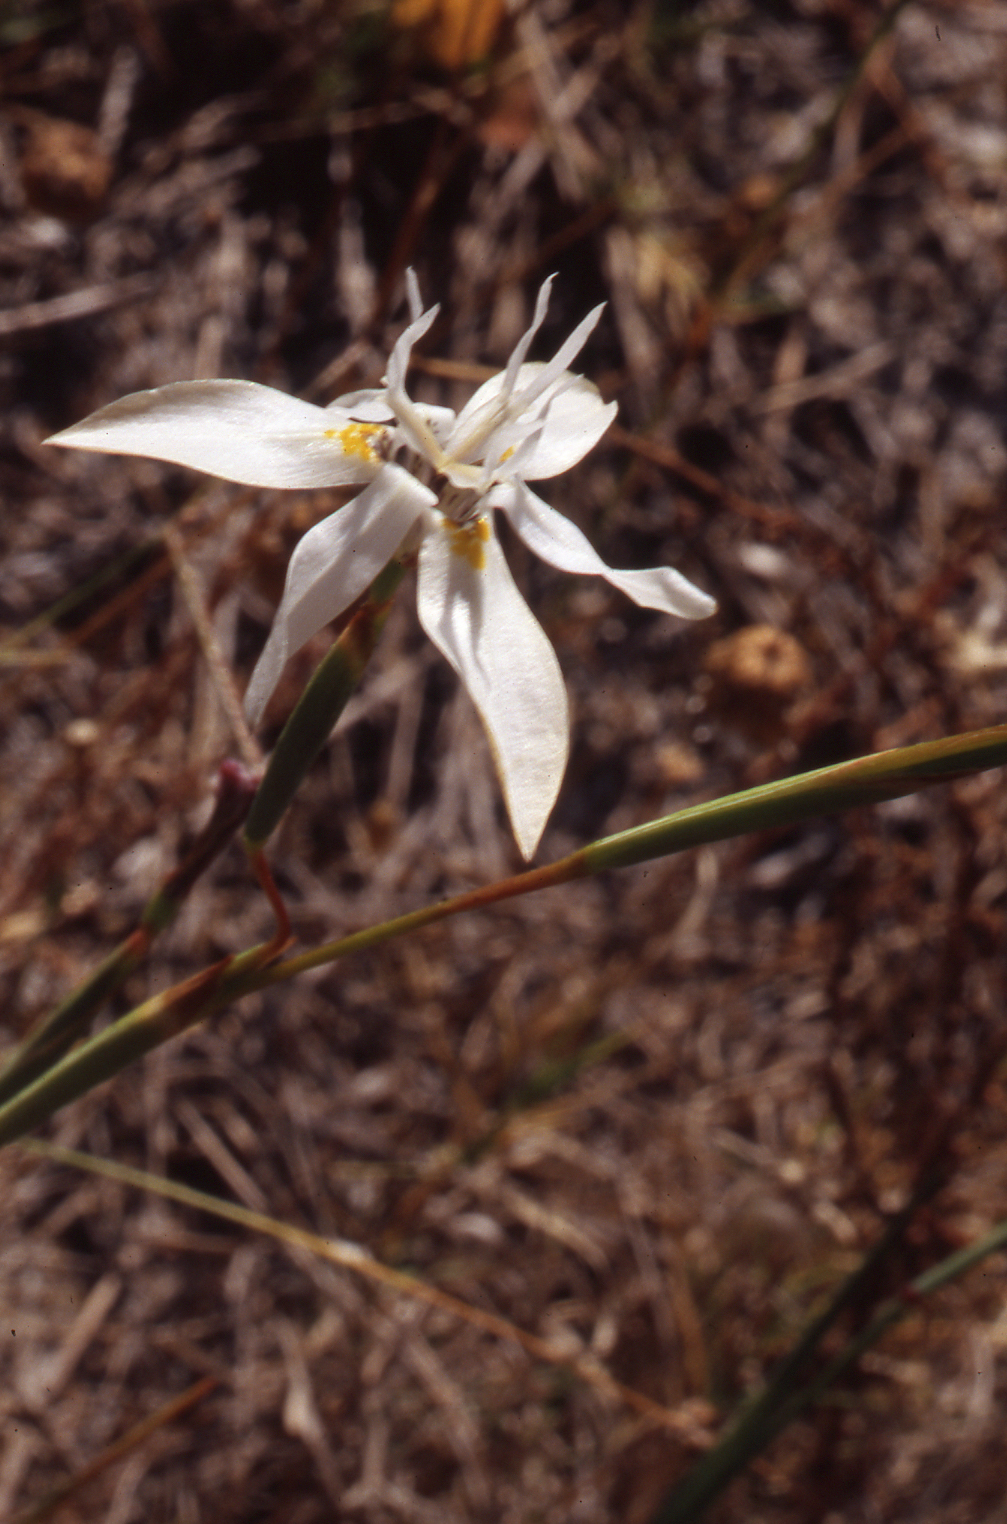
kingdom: Plantae
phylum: Tracheophyta
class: Liliopsida
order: Asparagales
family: Iridaceae
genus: Moraea
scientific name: Moraea viscaria
